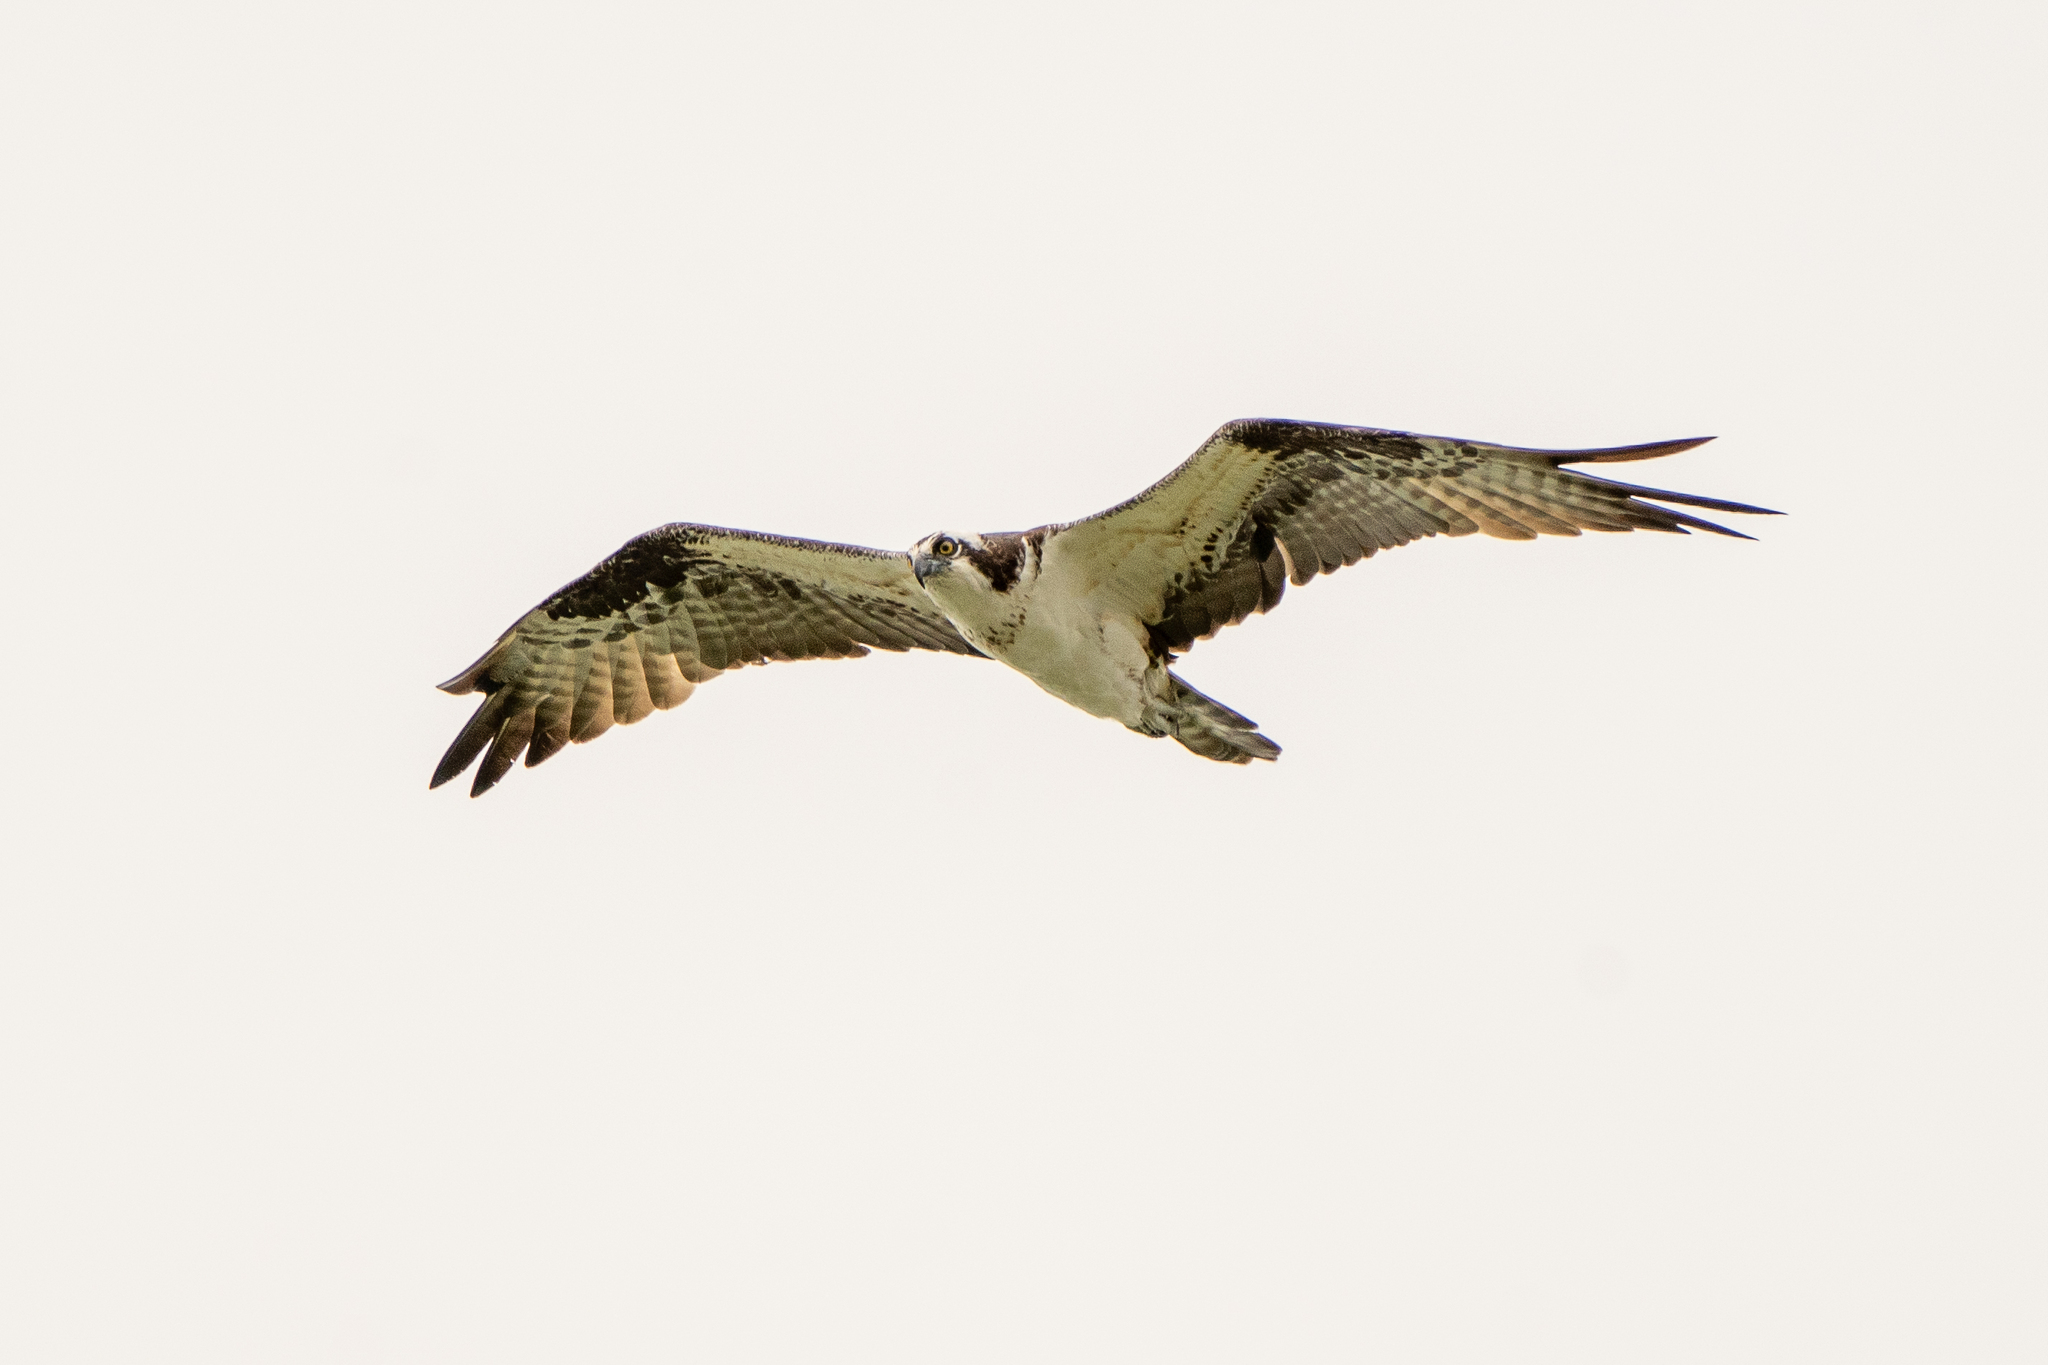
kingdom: Animalia
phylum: Chordata
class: Aves
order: Accipitriformes
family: Pandionidae
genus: Pandion
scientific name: Pandion haliaetus
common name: Osprey
